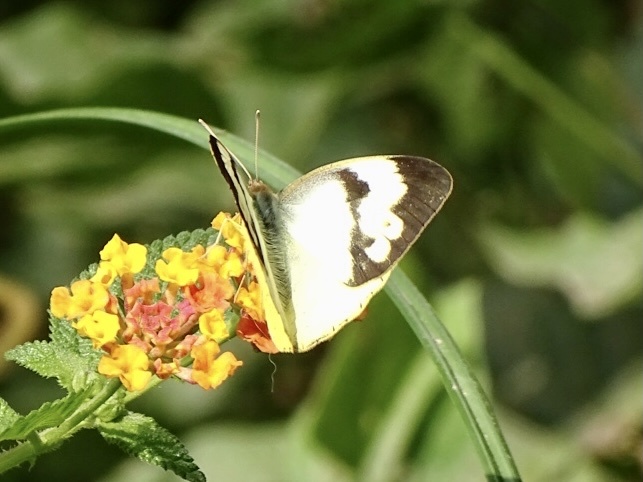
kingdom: Animalia
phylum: Arthropoda
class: Insecta
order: Lepidoptera
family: Pieridae
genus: Ixias
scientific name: Ixias pyrene
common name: Yellow orange tip
